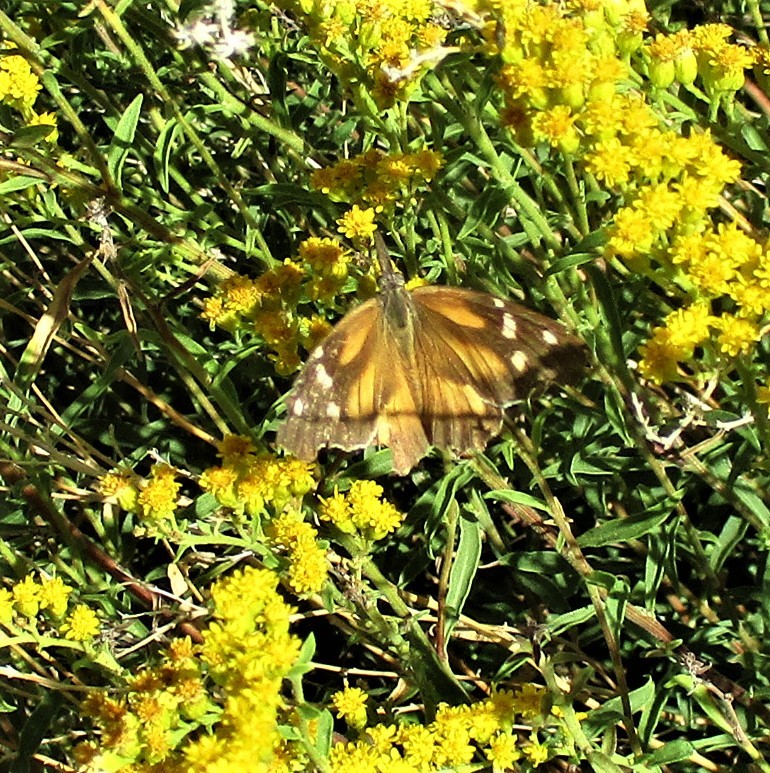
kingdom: Animalia
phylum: Arthropoda
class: Insecta
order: Lepidoptera
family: Nymphalidae
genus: Libytheana
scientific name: Libytheana carinenta
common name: American snout
